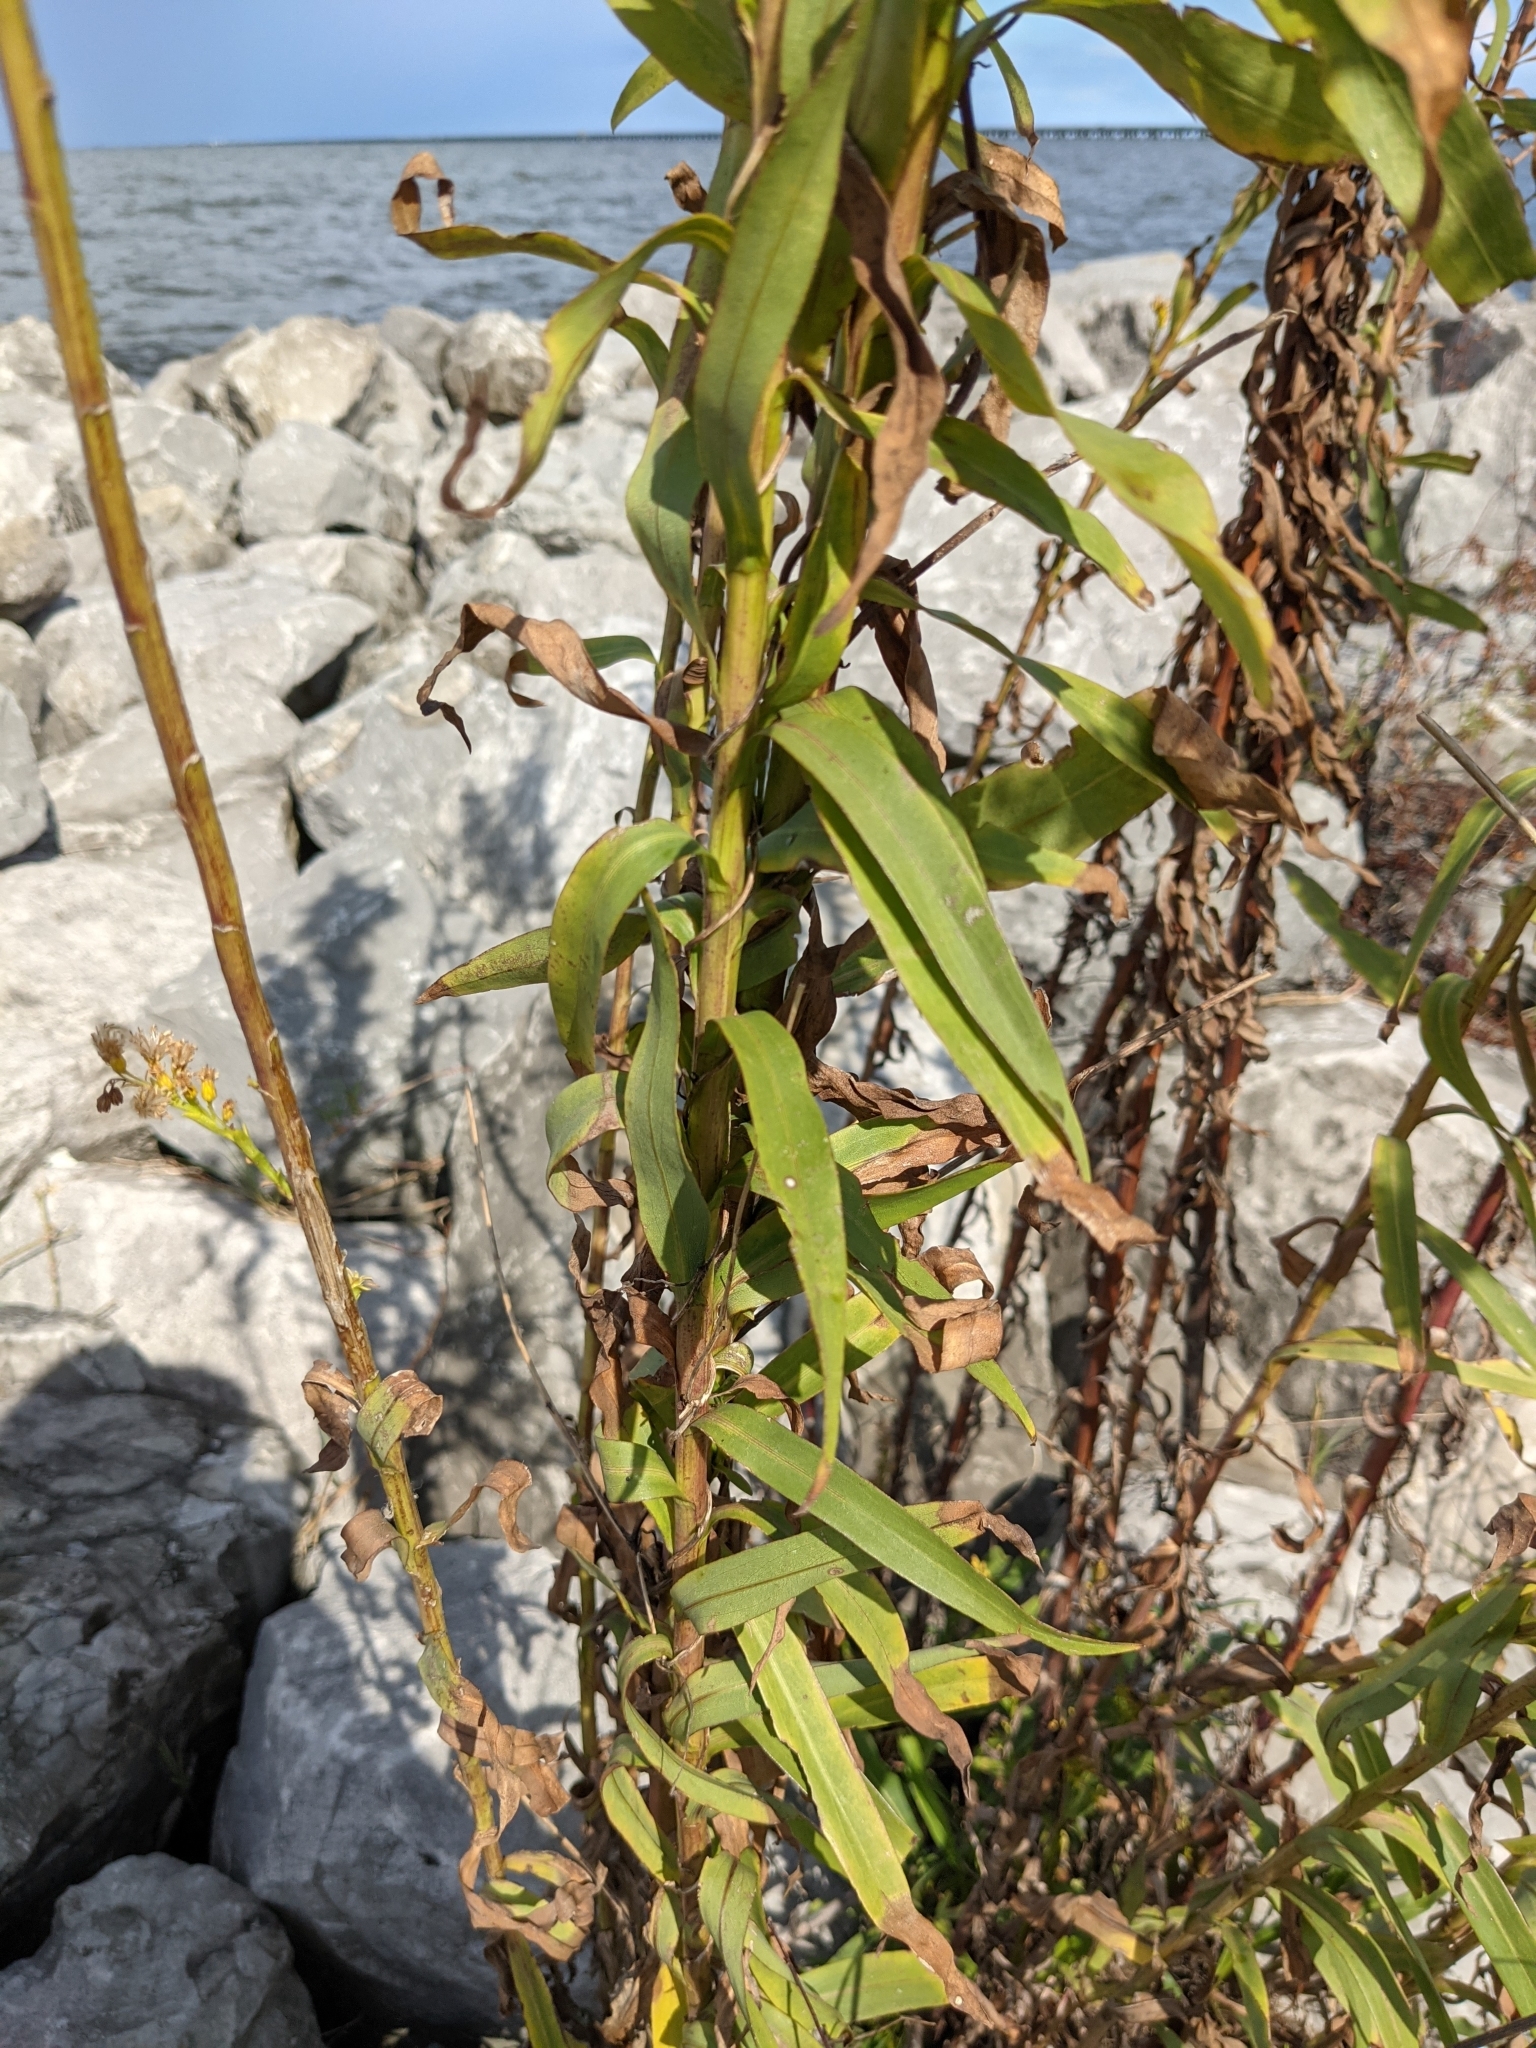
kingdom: Plantae
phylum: Tracheophyta
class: Magnoliopsida
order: Asterales
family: Asteraceae
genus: Solidago
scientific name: Solidago mexicana
